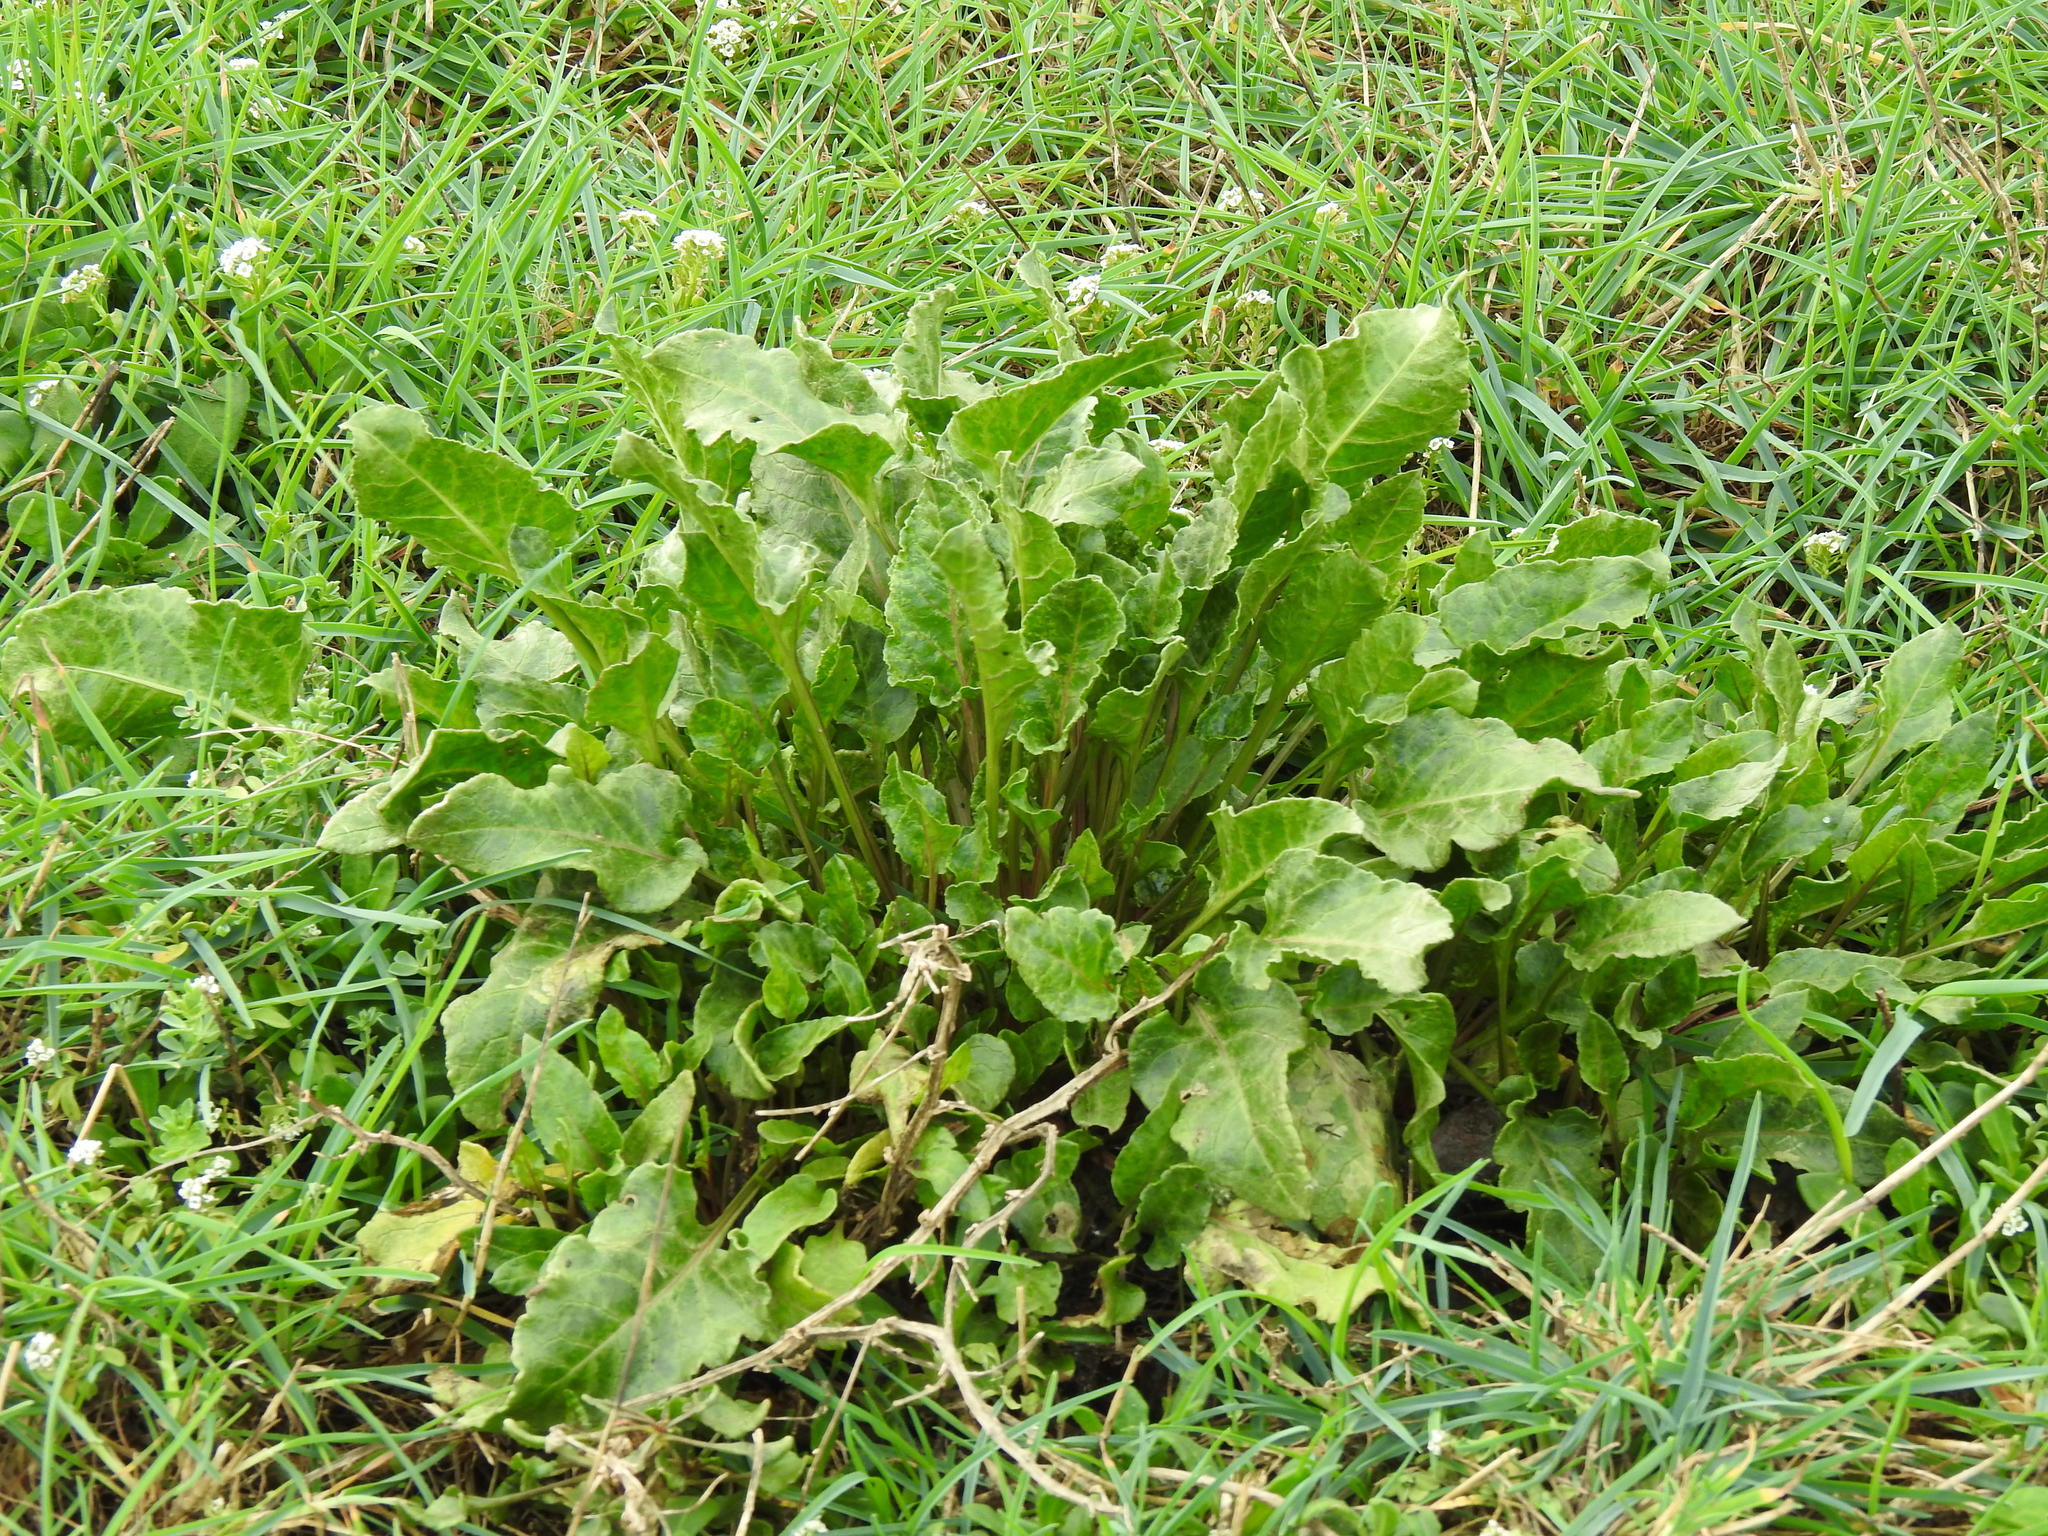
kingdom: Plantae
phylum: Tracheophyta
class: Magnoliopsida
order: Caryophyllales
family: Amaranthaceae
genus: Beta
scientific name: Beta vulgaris
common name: Beet
